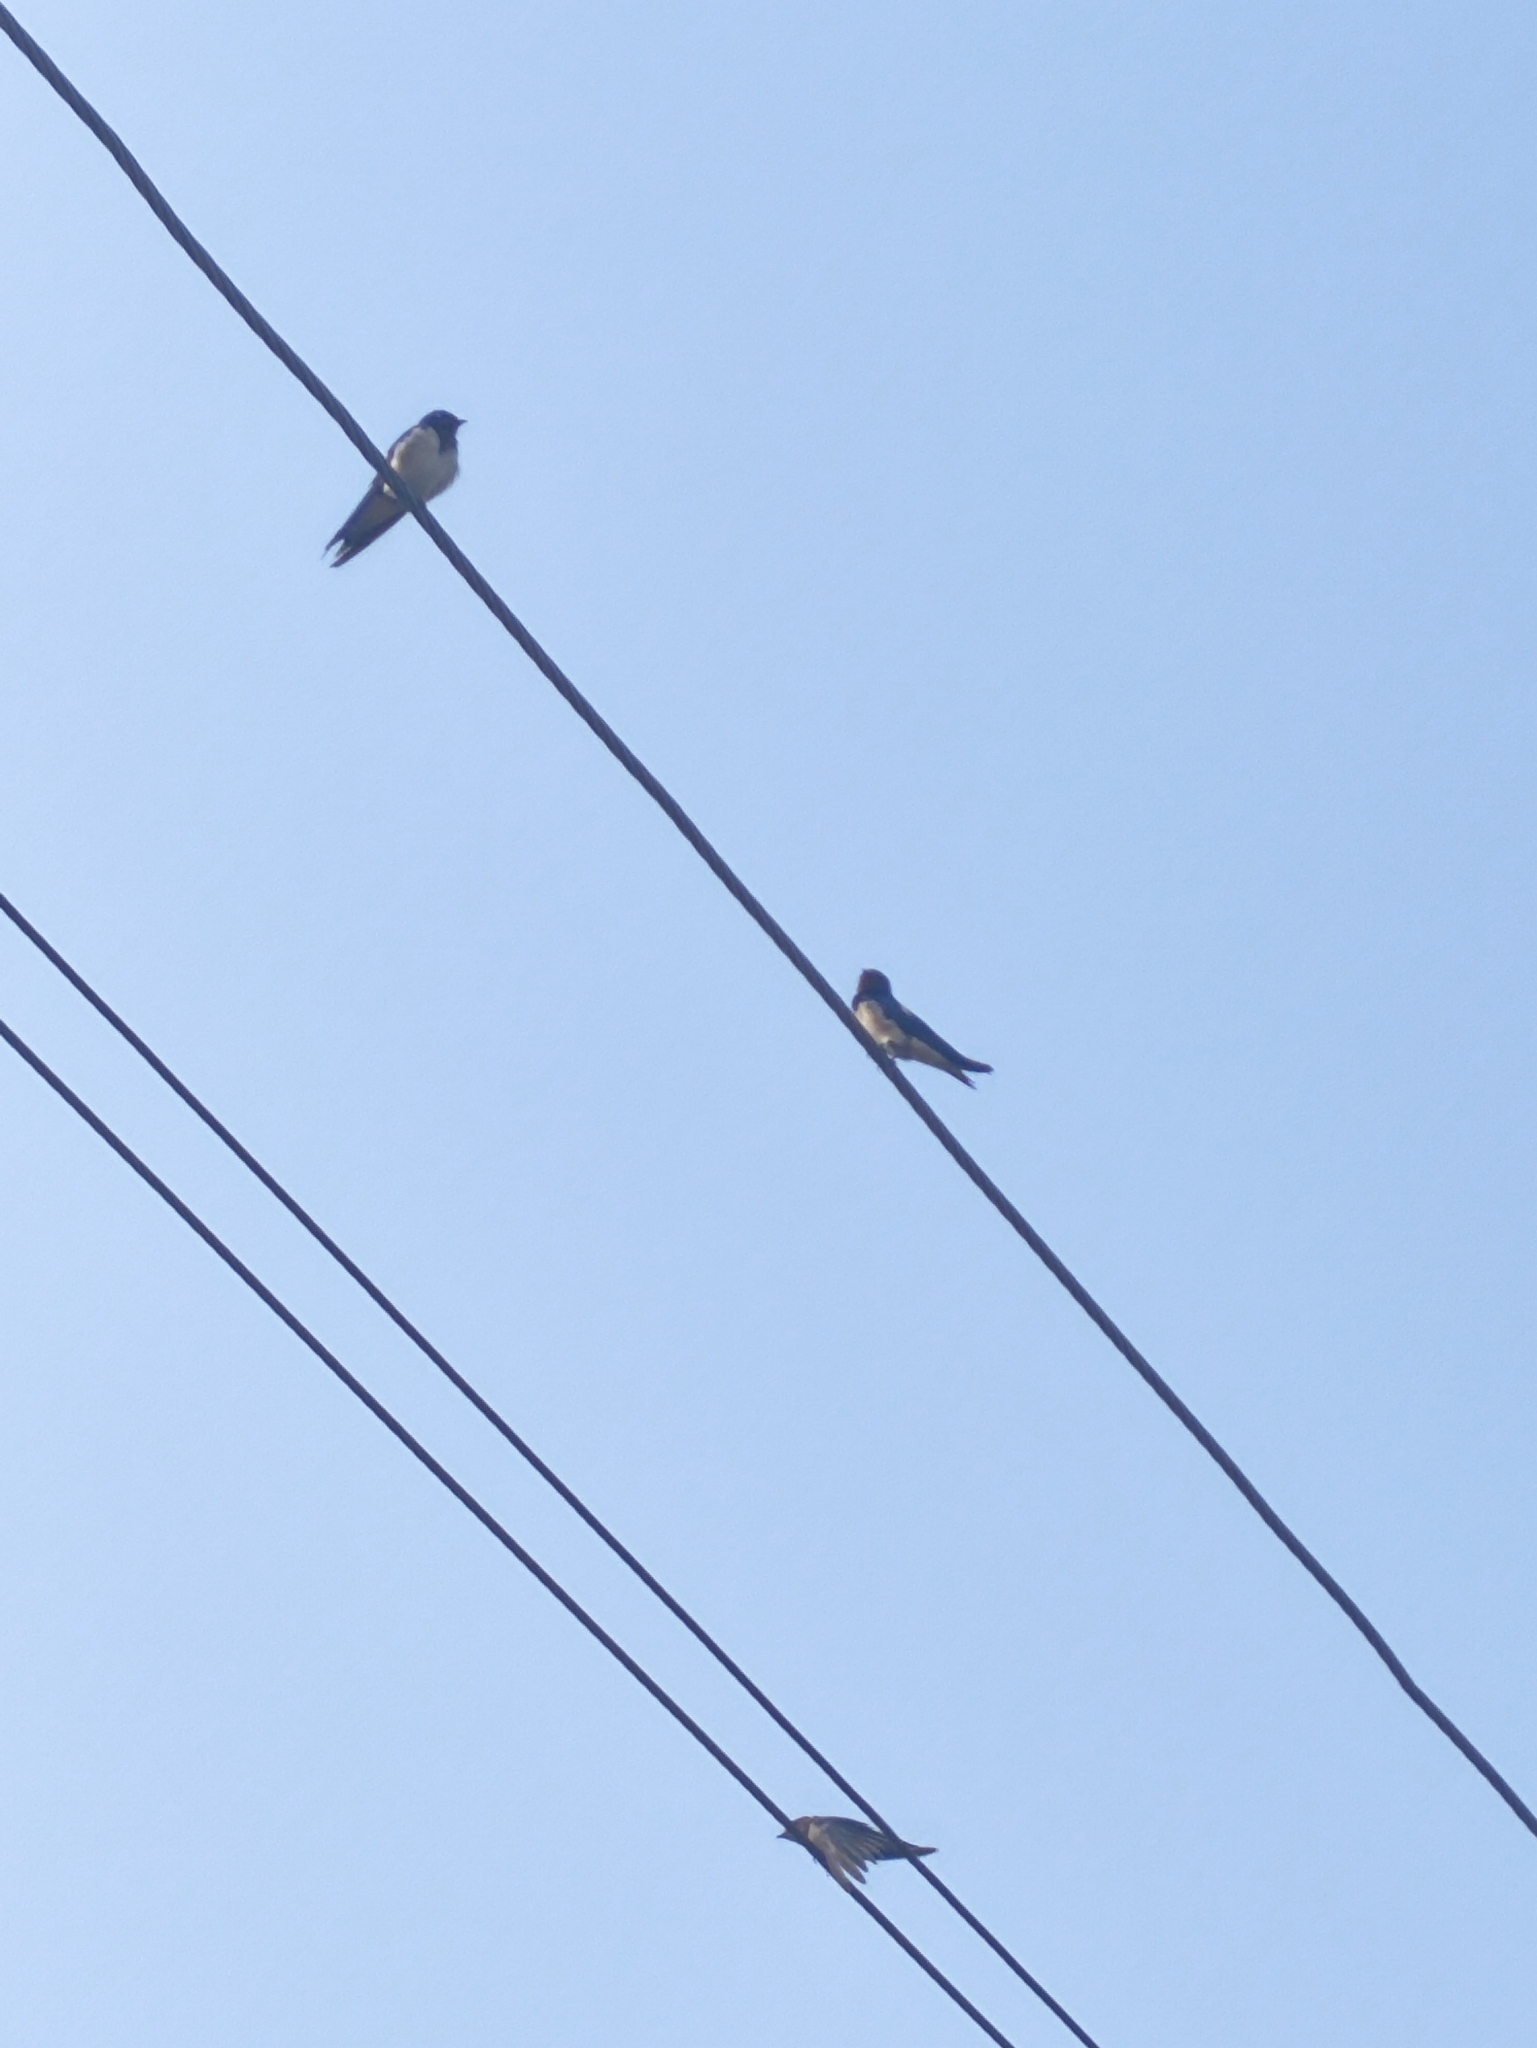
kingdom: Animalia
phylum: Chordata
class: Aves
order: Passeriformes
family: Hirundinidae
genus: Hirundo
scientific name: Hirundo rustica
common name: Barn swallow
